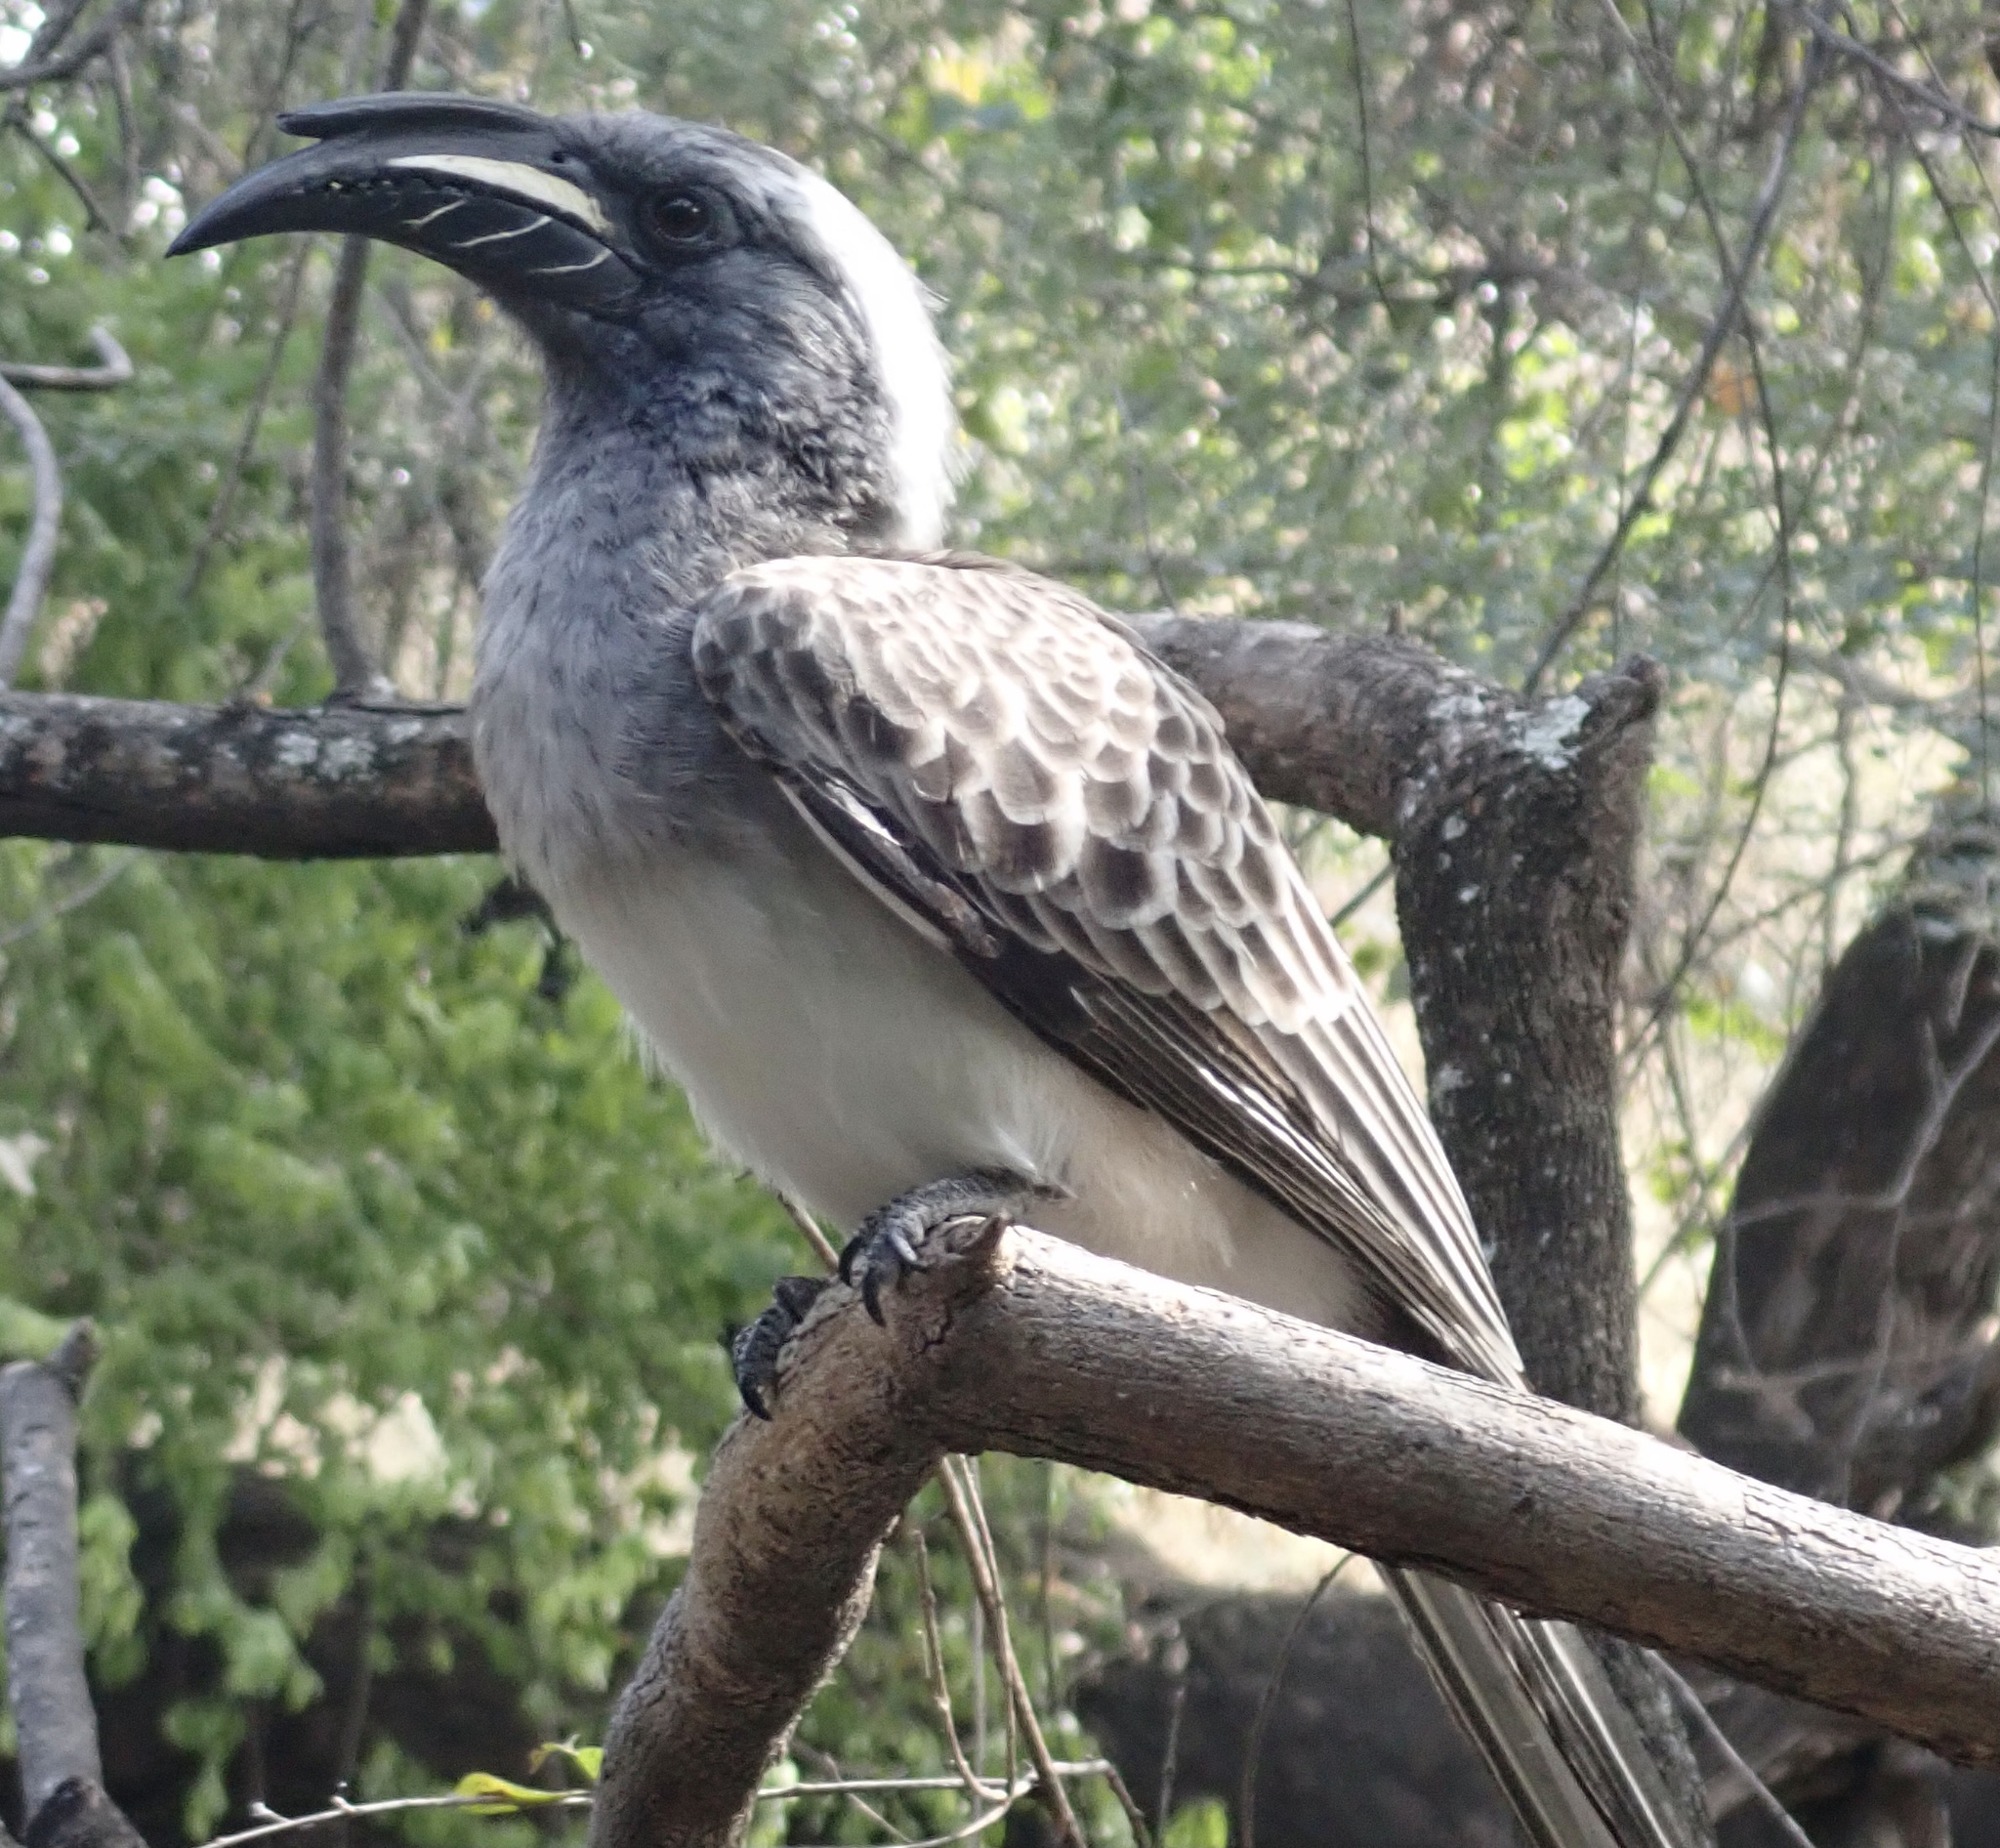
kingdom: Animalia
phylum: Chordata
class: Aves
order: Bucerotiformes
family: Bucerotidae
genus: Lophoceros
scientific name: Lophoceros nasutus
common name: African grey hornbill
